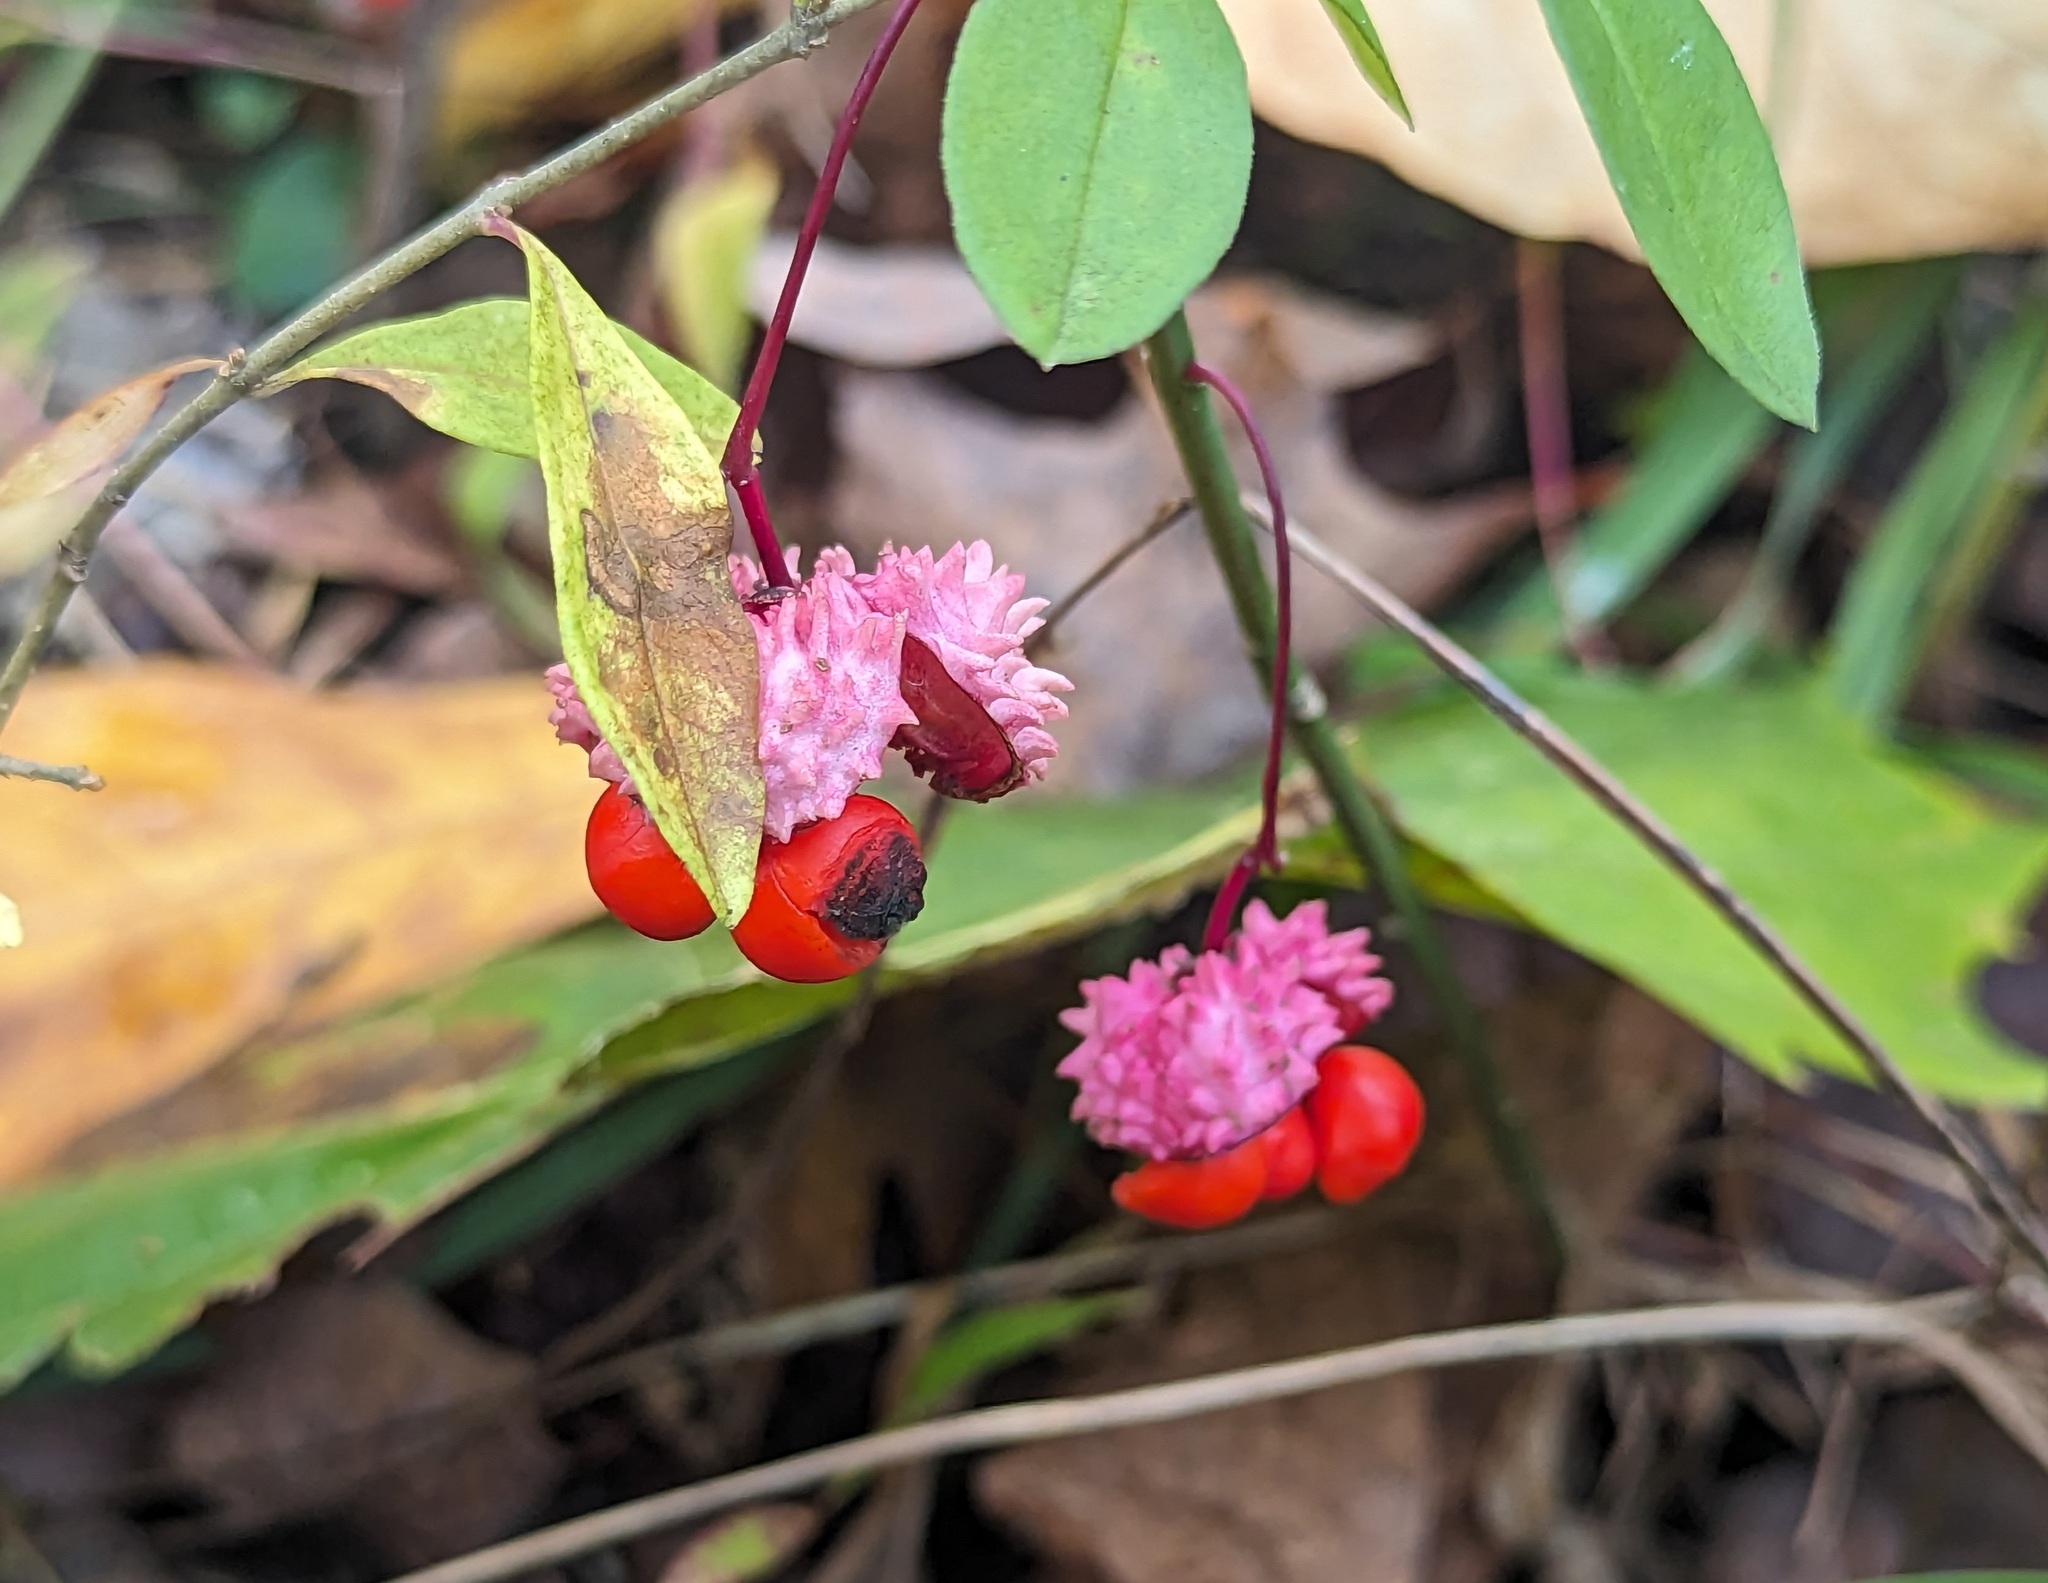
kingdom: Plantae
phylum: Tracheophyta
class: Magnoliopsida
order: Celastrales
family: Celastraceae
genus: Euonymus
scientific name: Euonymus obovatus
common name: Running strawberry-bush
